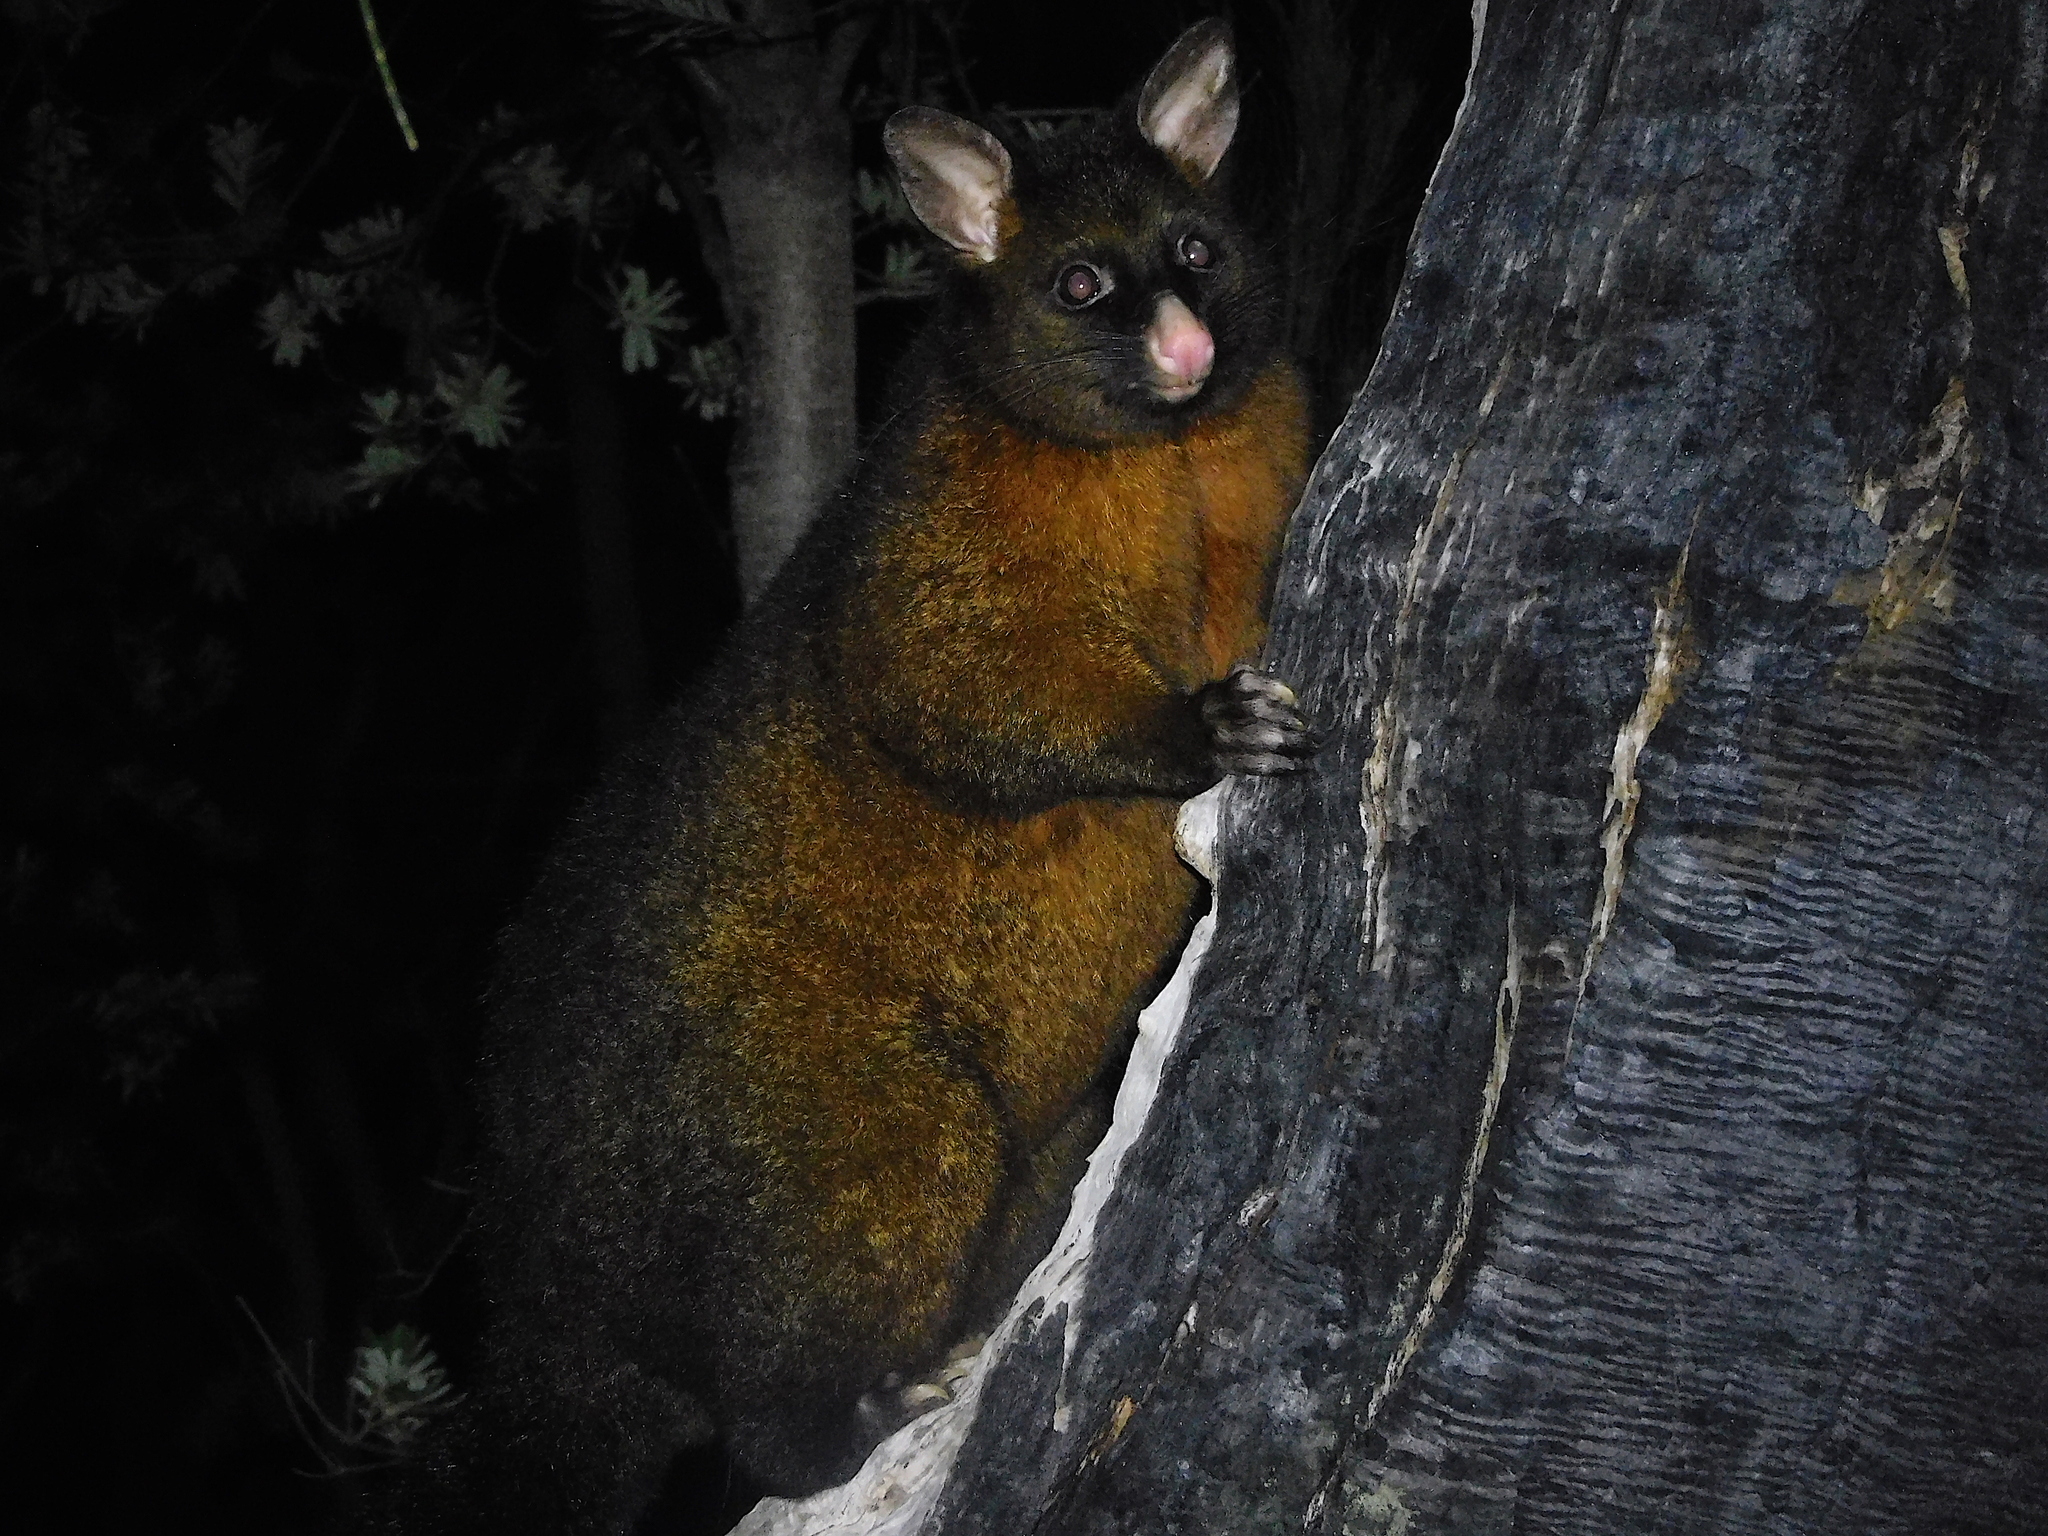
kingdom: Animalia
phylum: Chordata
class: Mammalia
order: Diprotodontia
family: Phalangeridae
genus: Trichosurus
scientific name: Trichosurus vulpecula
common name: Common brushtail
